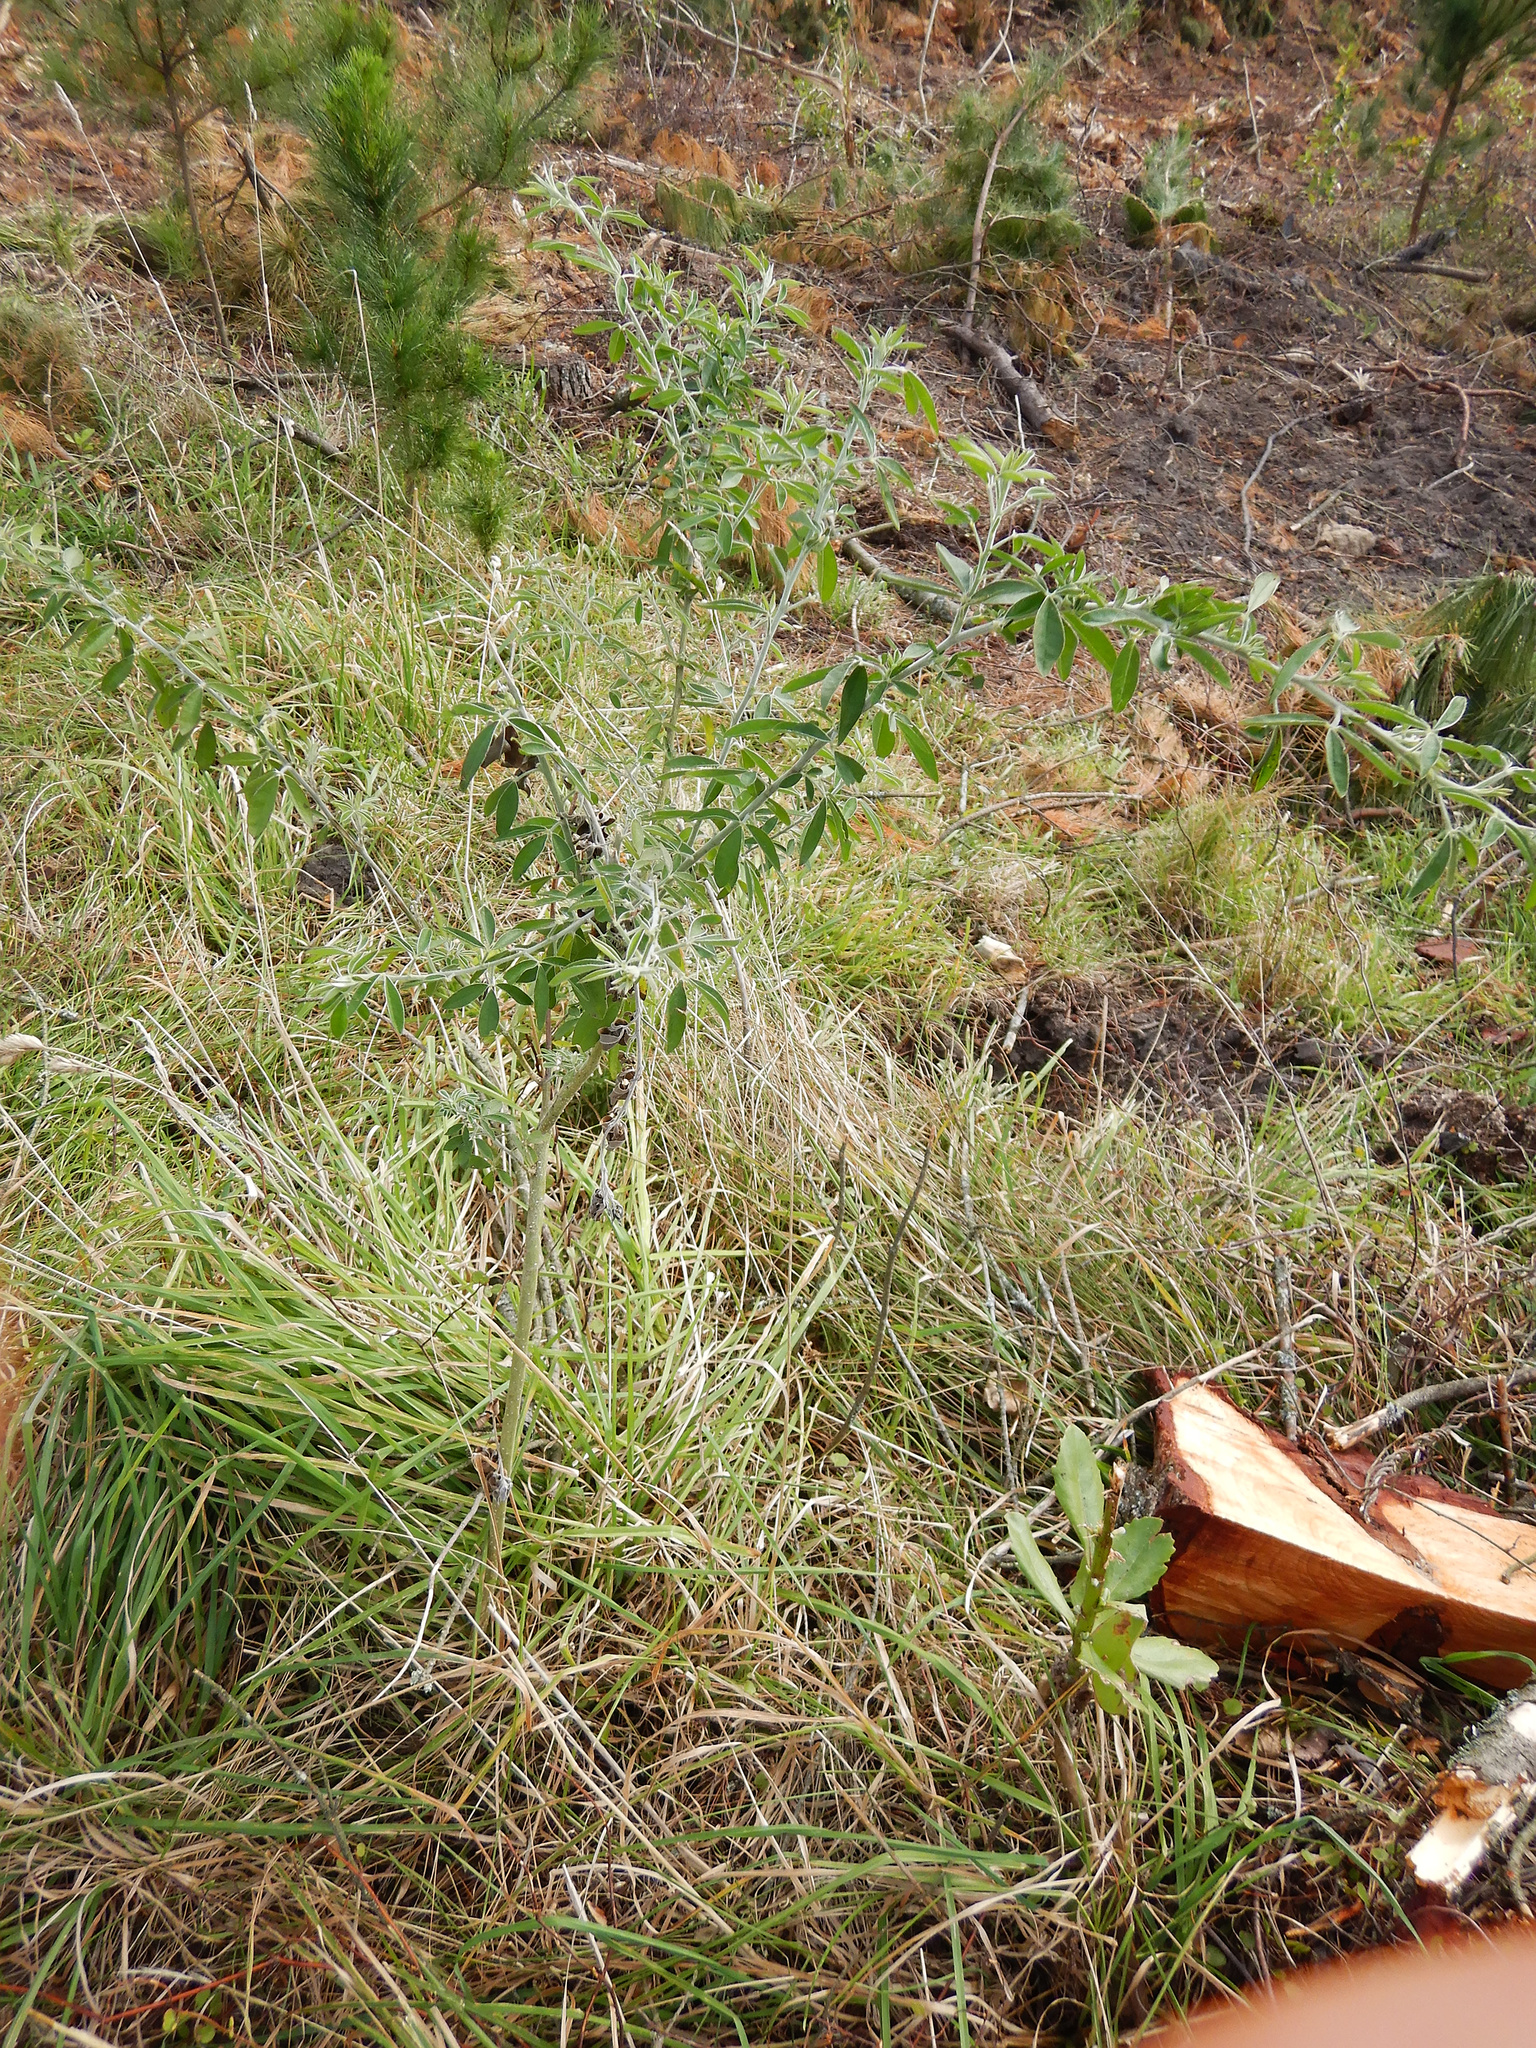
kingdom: Plantae
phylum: Tracheophyta
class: Magnoliopsida
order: Fabales
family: Fabaceae
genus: Chamaecytisus
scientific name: Chamaecytisus prolifer
